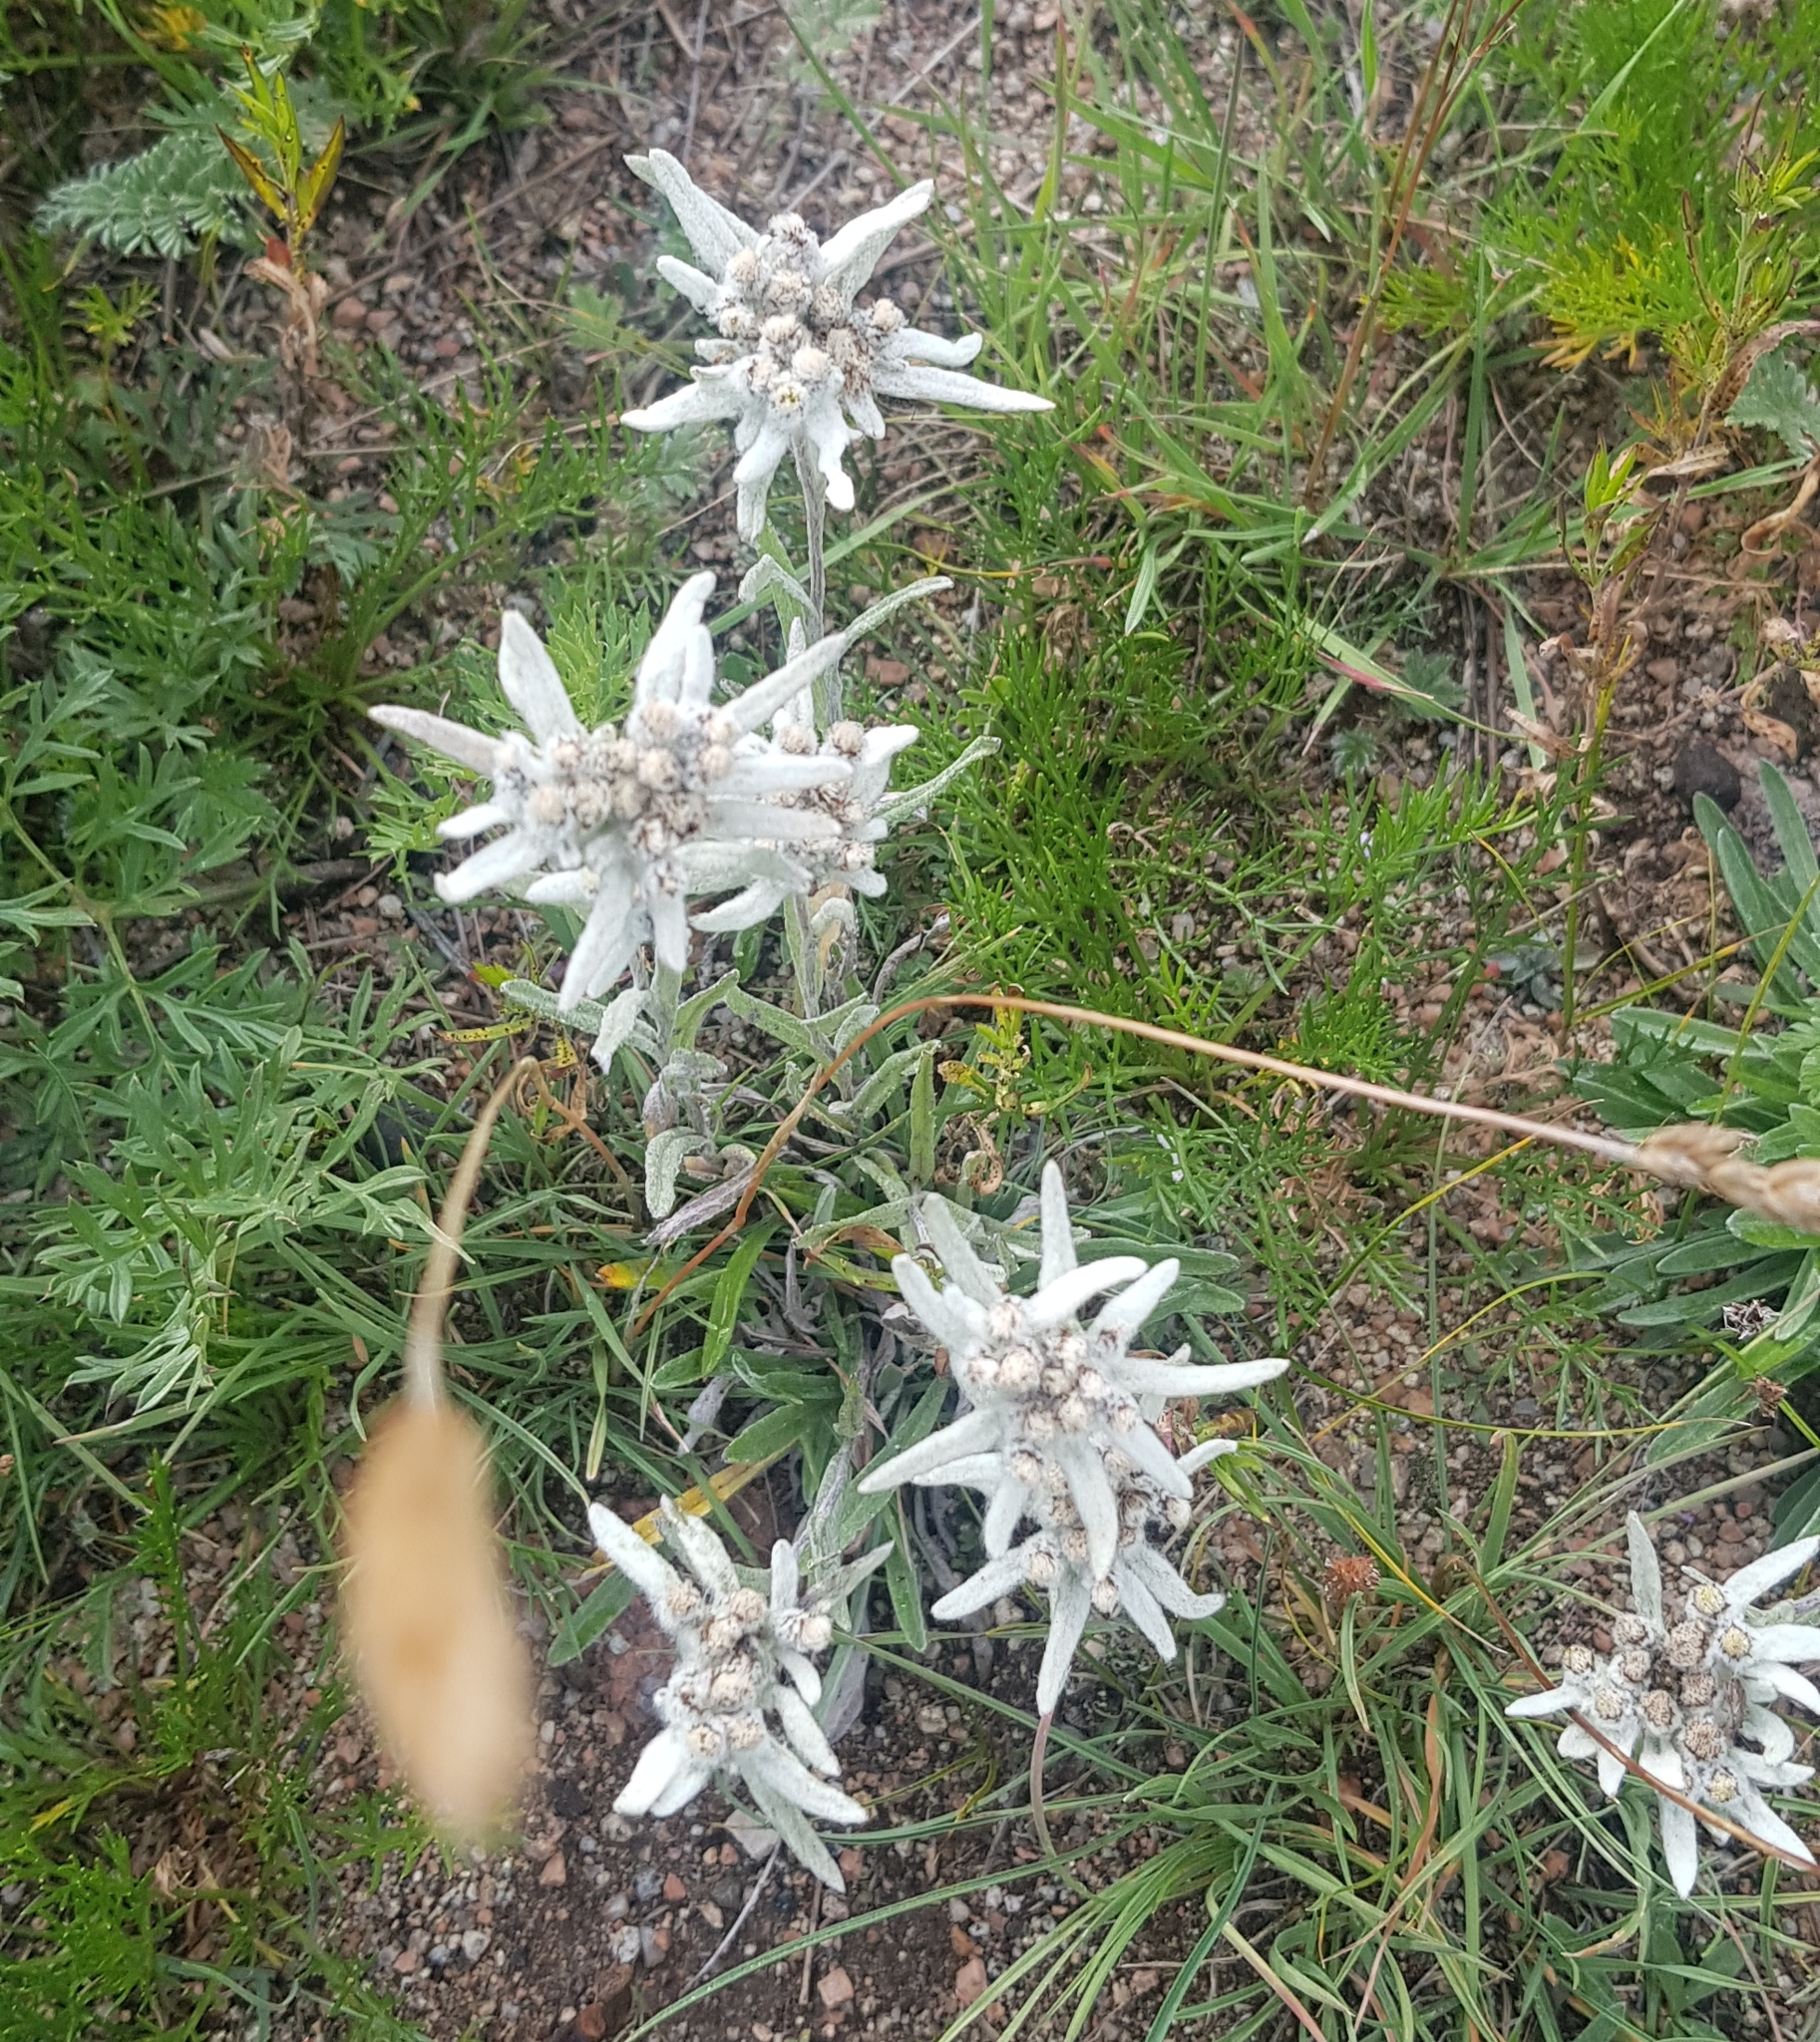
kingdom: Plantae
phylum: Tracheophyta
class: Magnoliopsida
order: Asterales
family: Asteraceae
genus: Leontopodium
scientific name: Leontopodium leontopodioides
